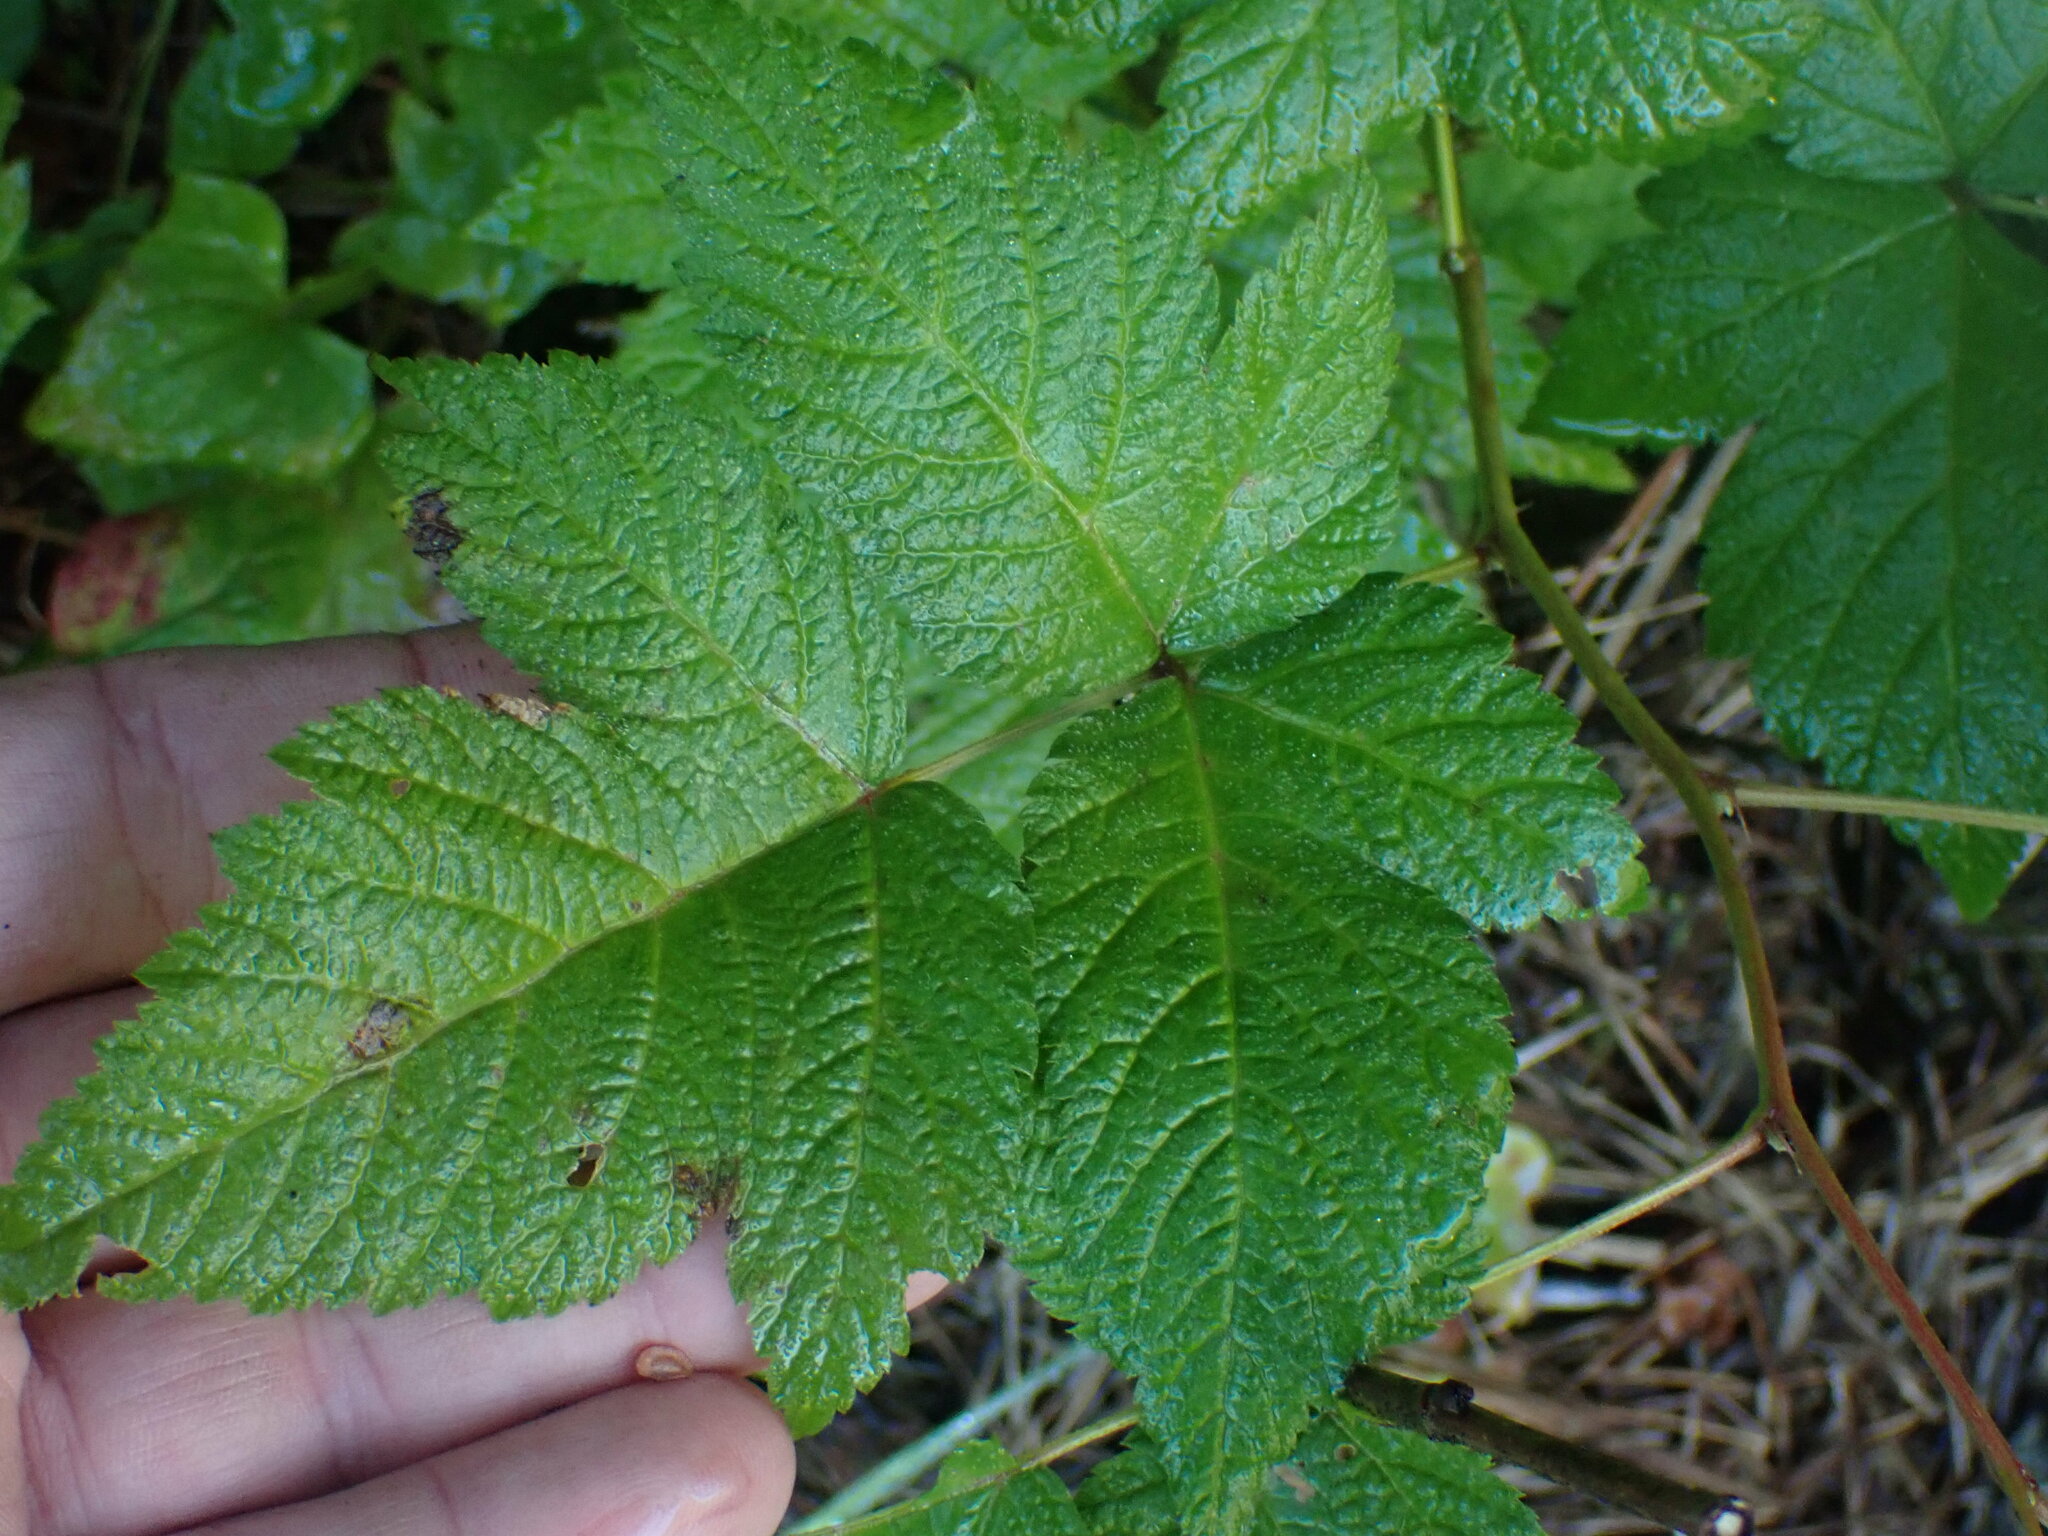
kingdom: Plantae
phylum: Tracheophyta
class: Magnoliopsida
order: Rosales
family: Rosaceae
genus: Rubus
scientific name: Rubus spectabilis
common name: Salmonberry
